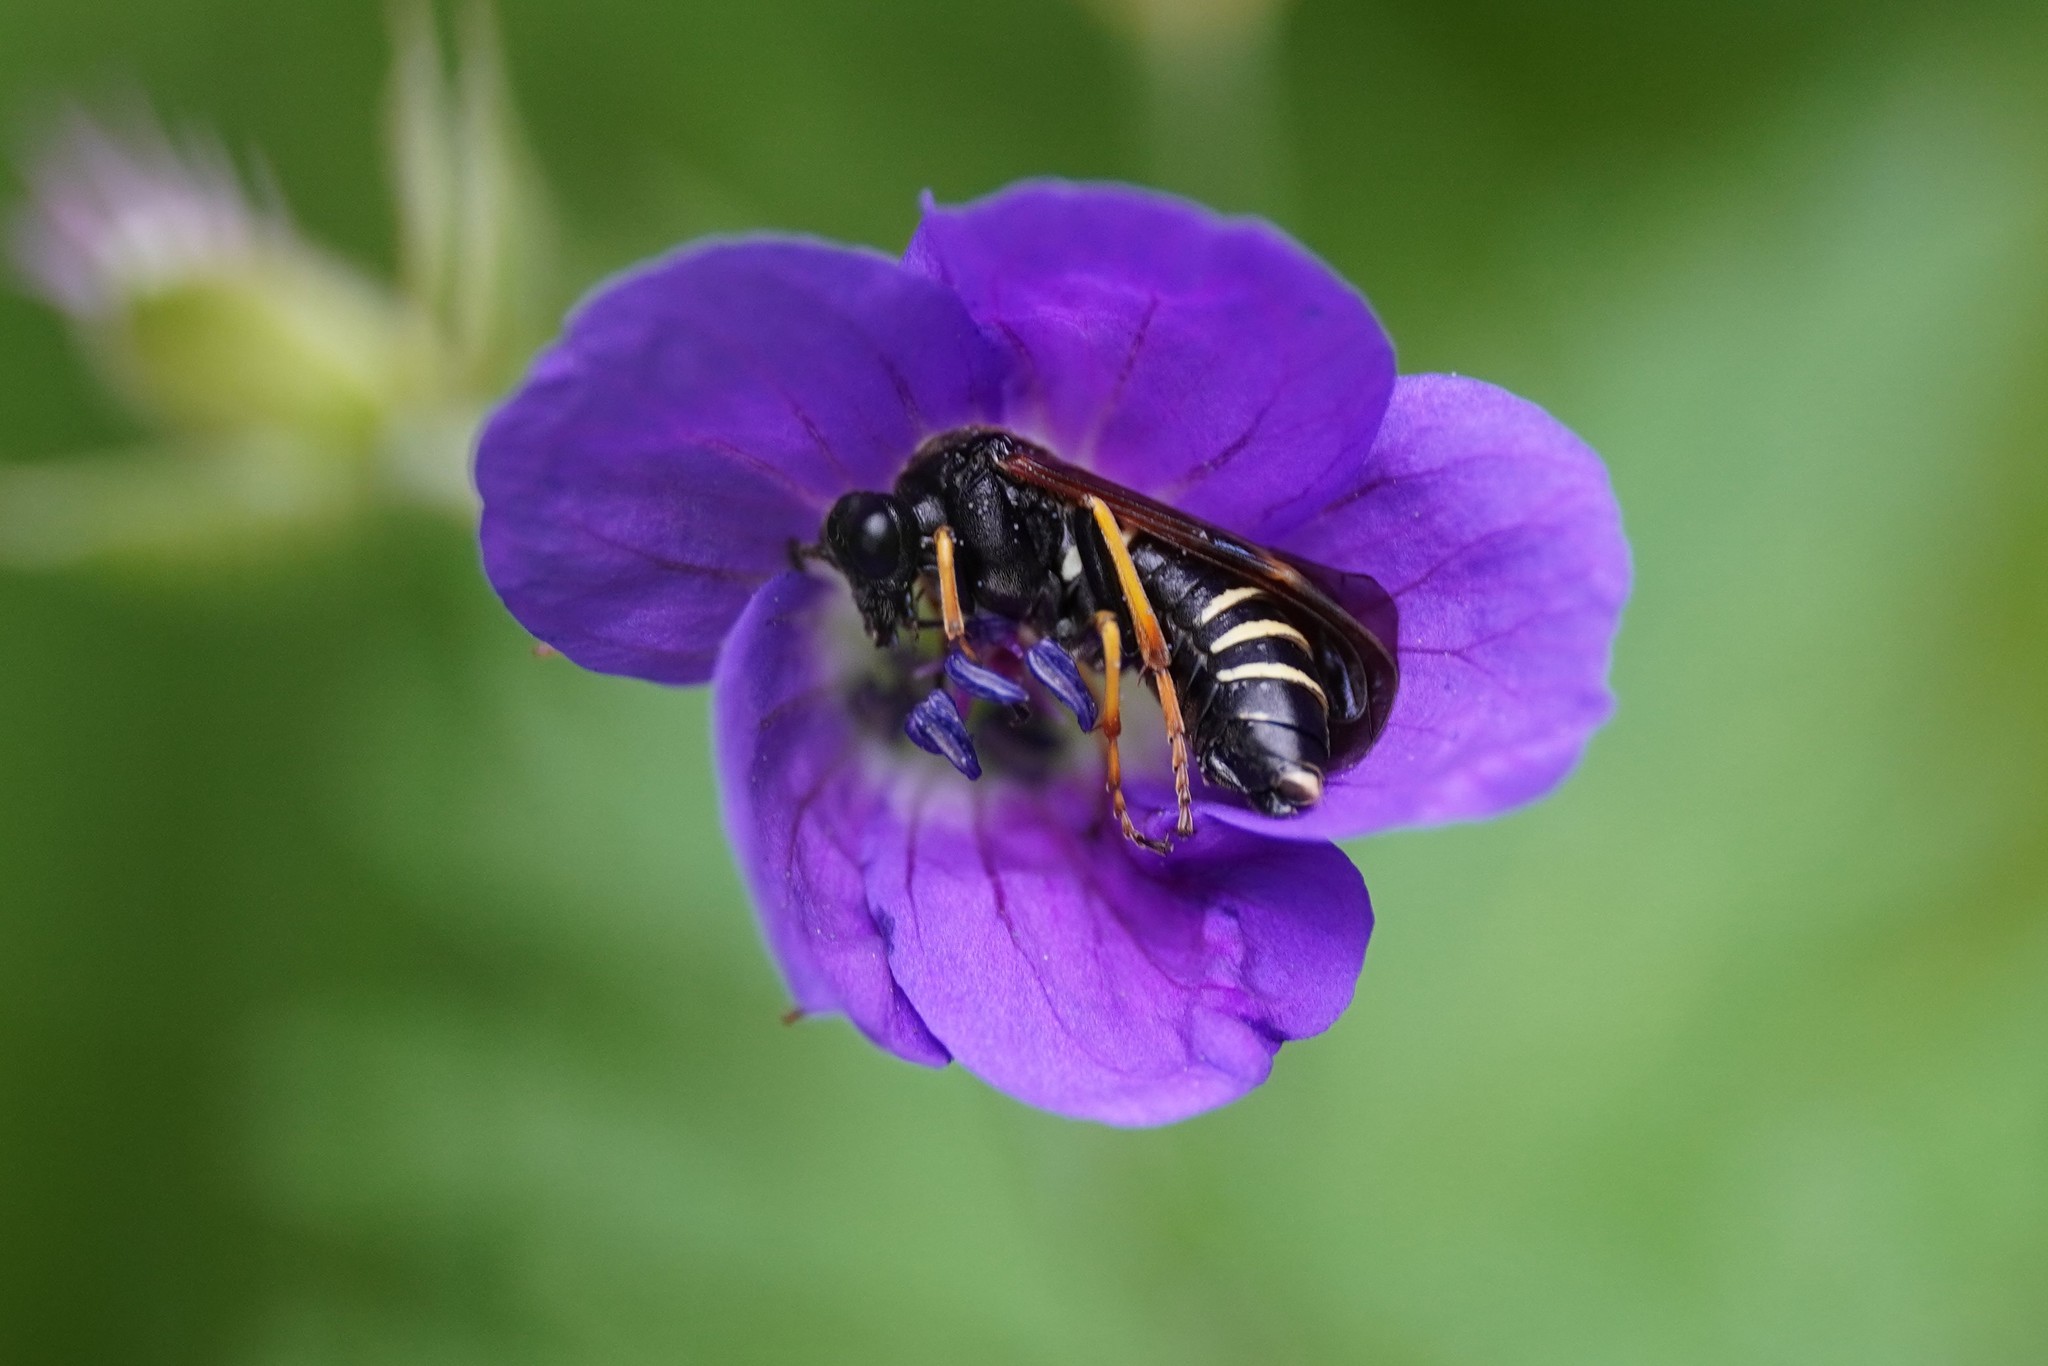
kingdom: Animalia
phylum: Arthropoda
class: Insecta
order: Hymenoptera
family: Tenthredinidae
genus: Tenthredo
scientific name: Tenthredo koehleri
